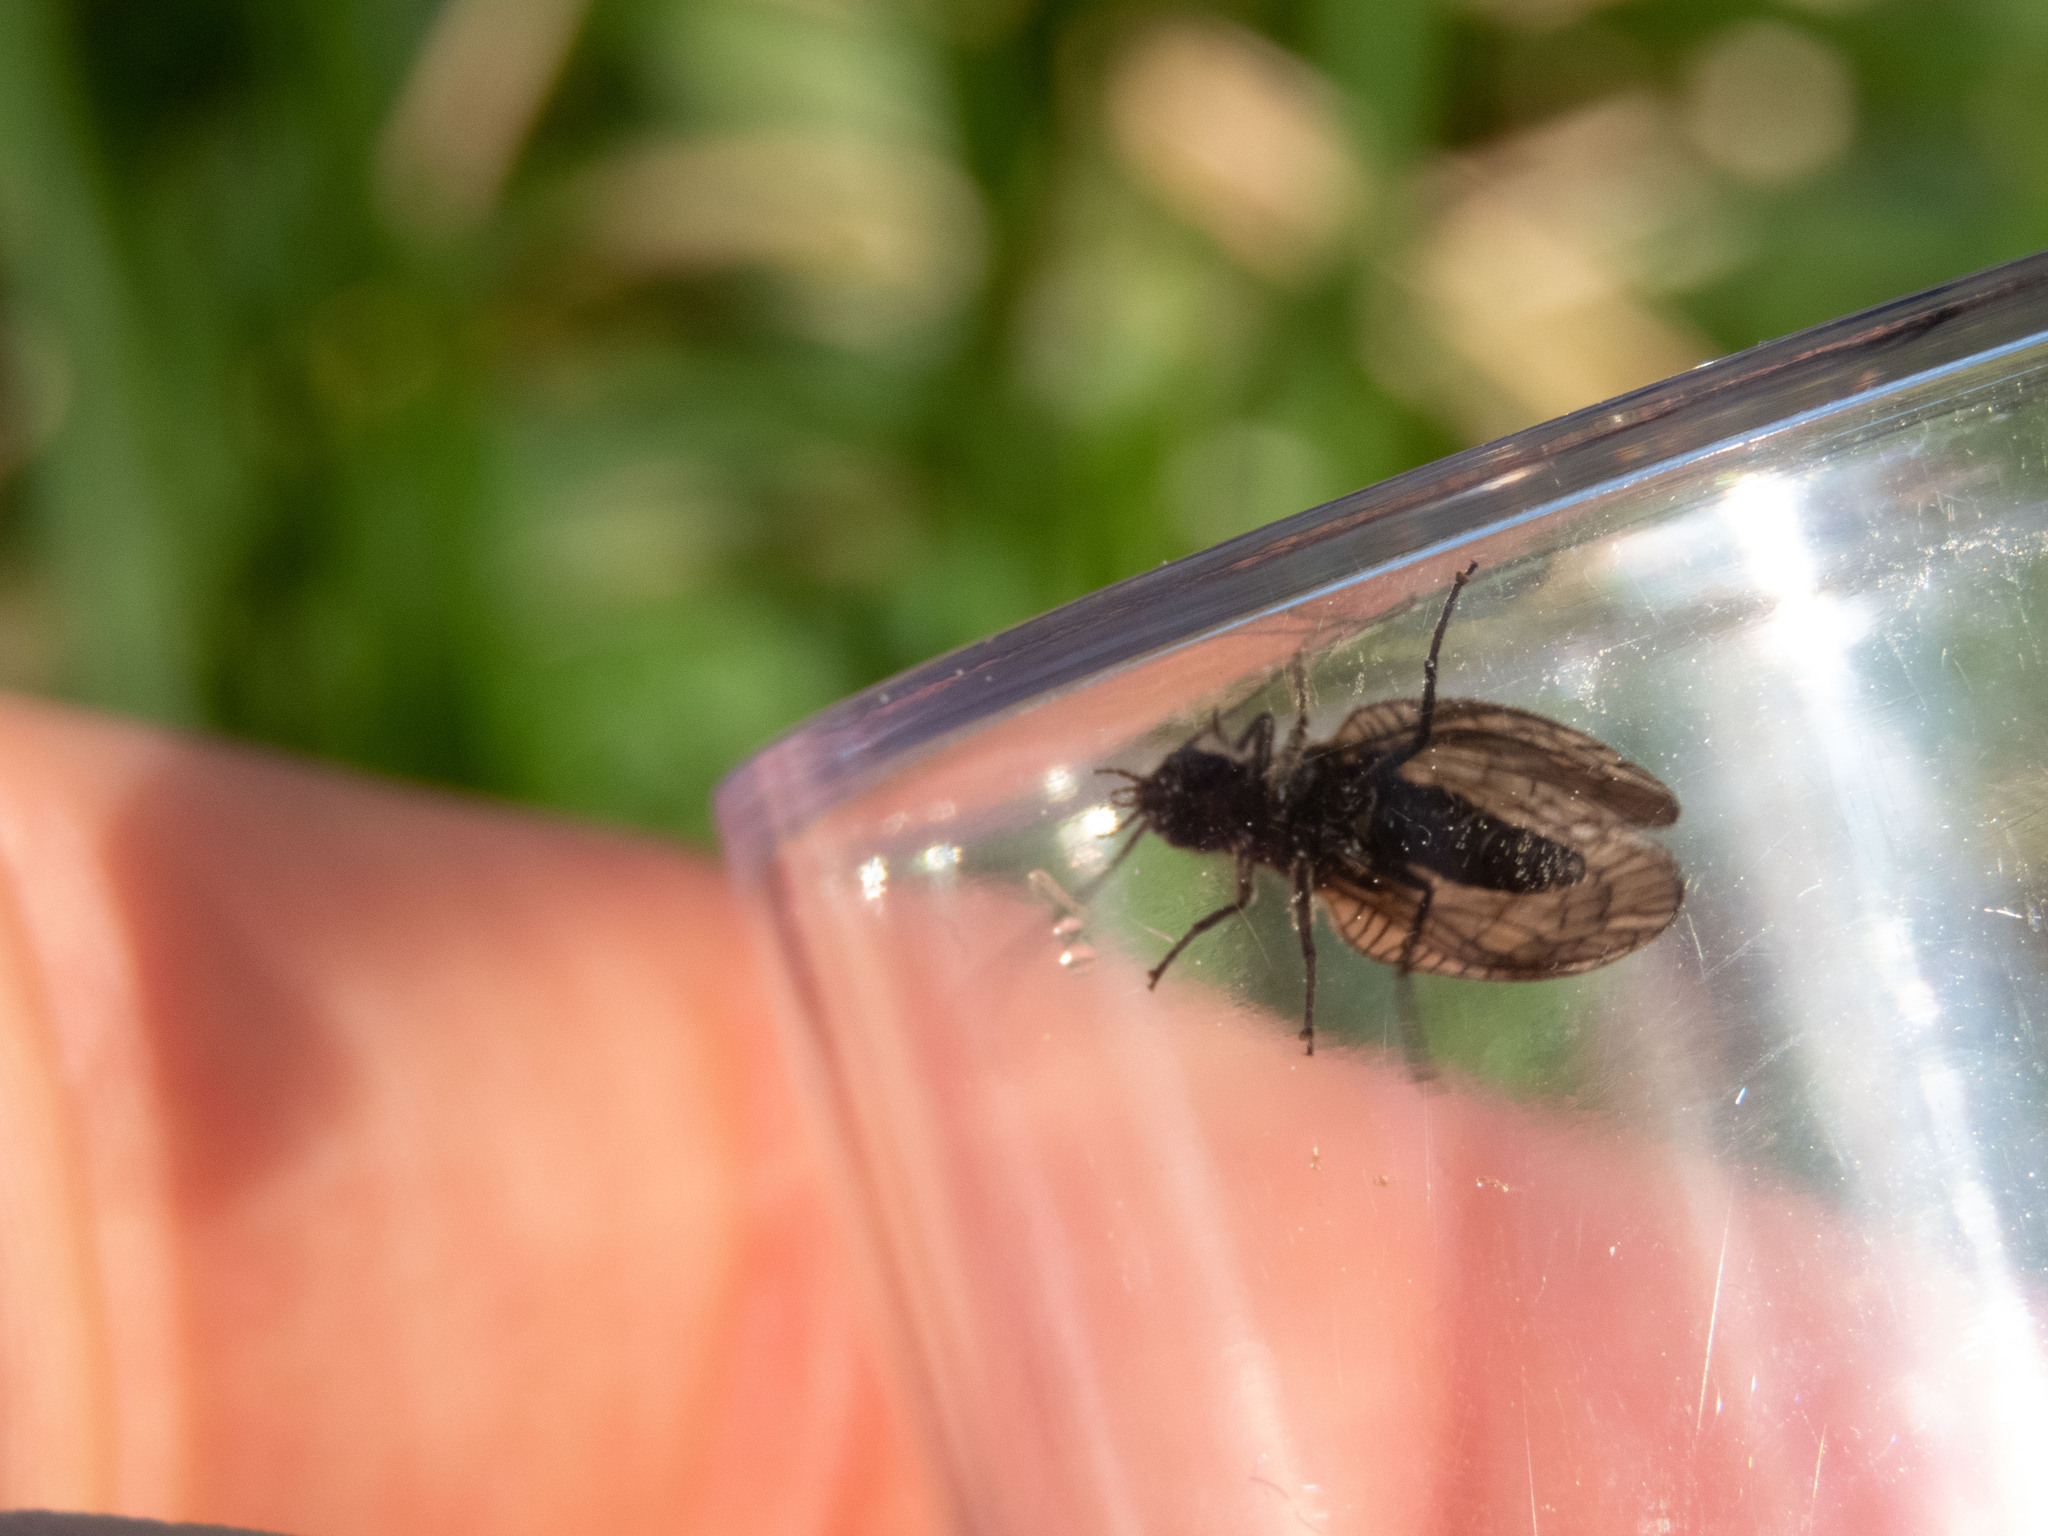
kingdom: Animalia
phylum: Arthropoda
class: Insecta
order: Megaloptera
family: Sialidae
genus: Sialis
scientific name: Sialis
